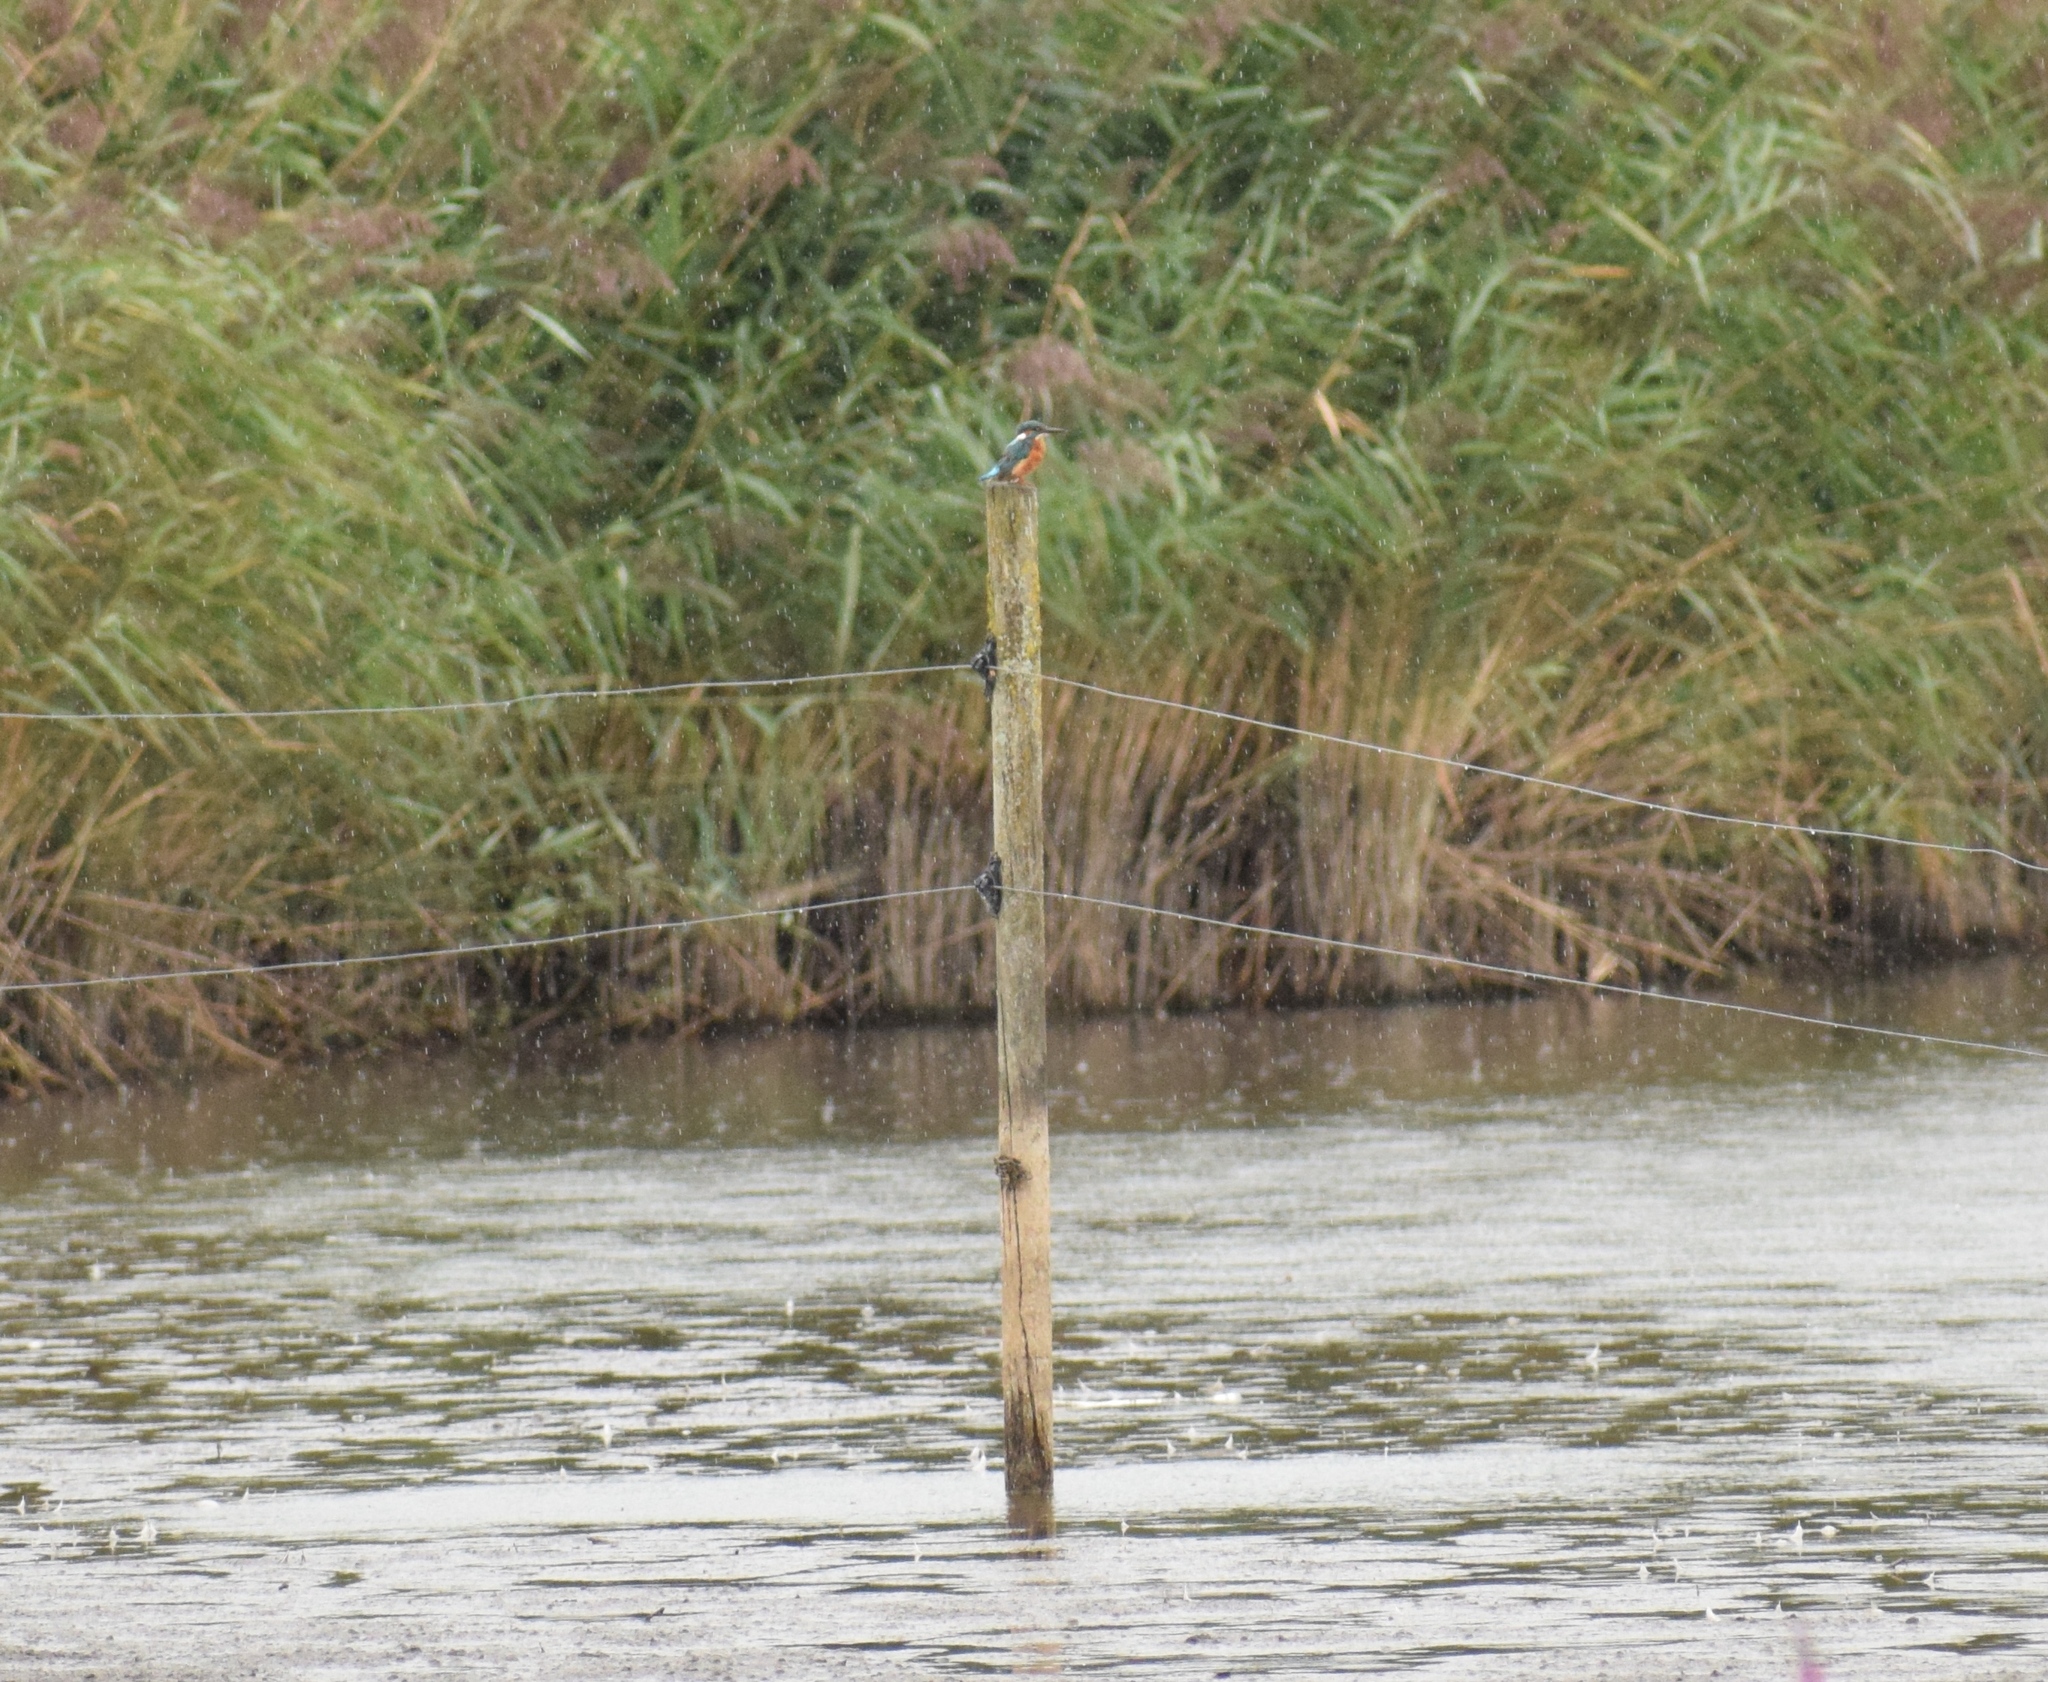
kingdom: Animalia
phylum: Chordata
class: Aves
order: Coraciiformes
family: Alcedinidae
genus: Alcedo
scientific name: Alcedo atthis
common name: Common kingfisher
